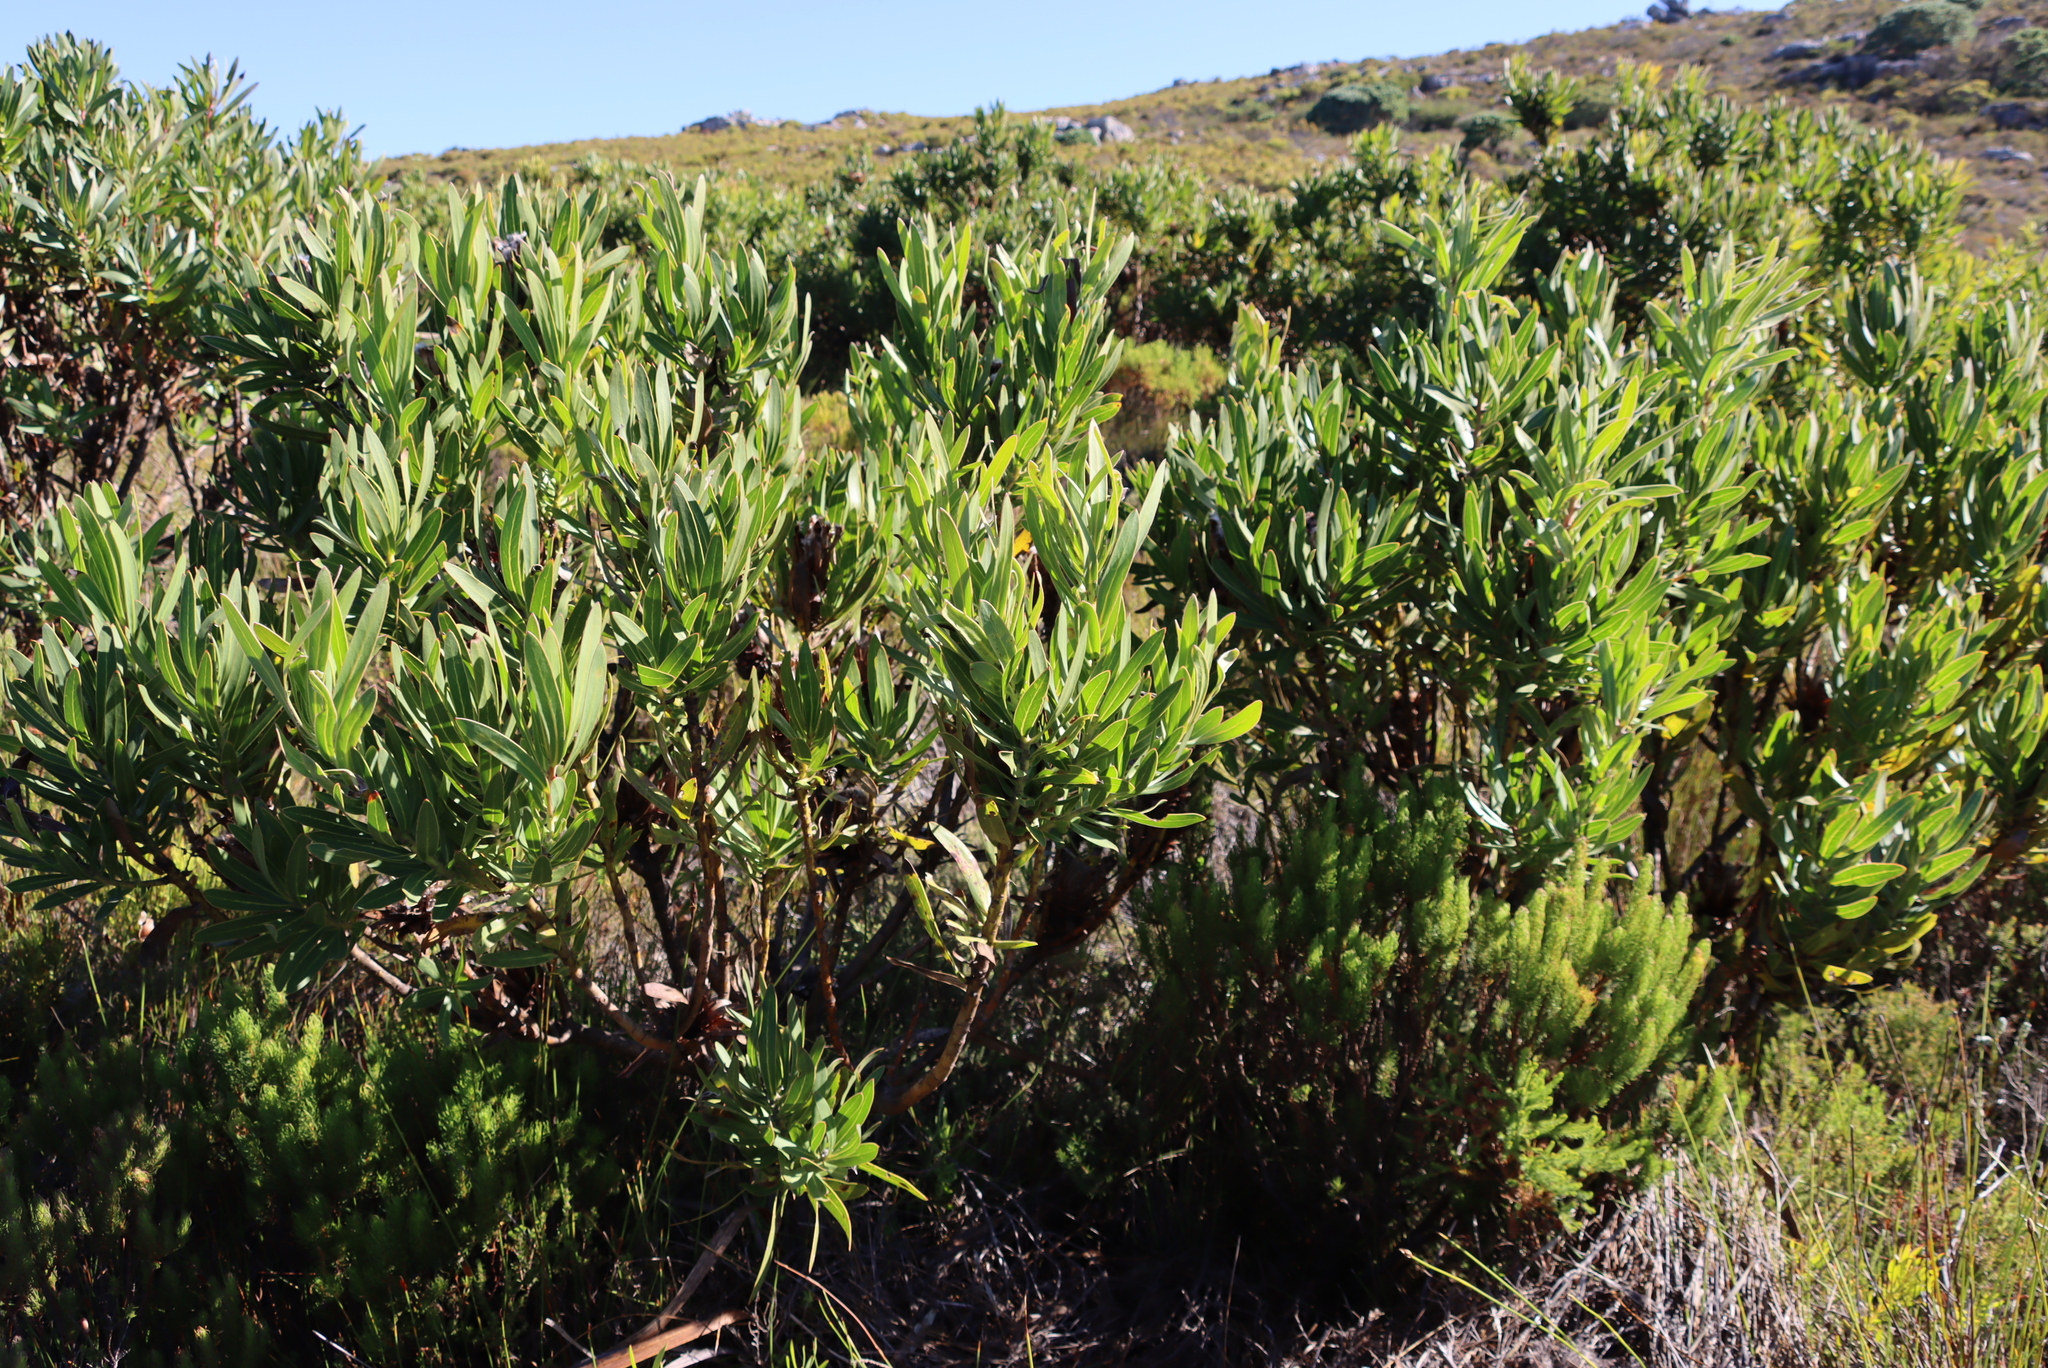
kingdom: Plantae
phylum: Tracheophyta
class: Magnoliopsida
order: Proteales
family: Proteaceae
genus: Protea
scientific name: Protea lepidocarpodendron
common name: Black-bearded protea
